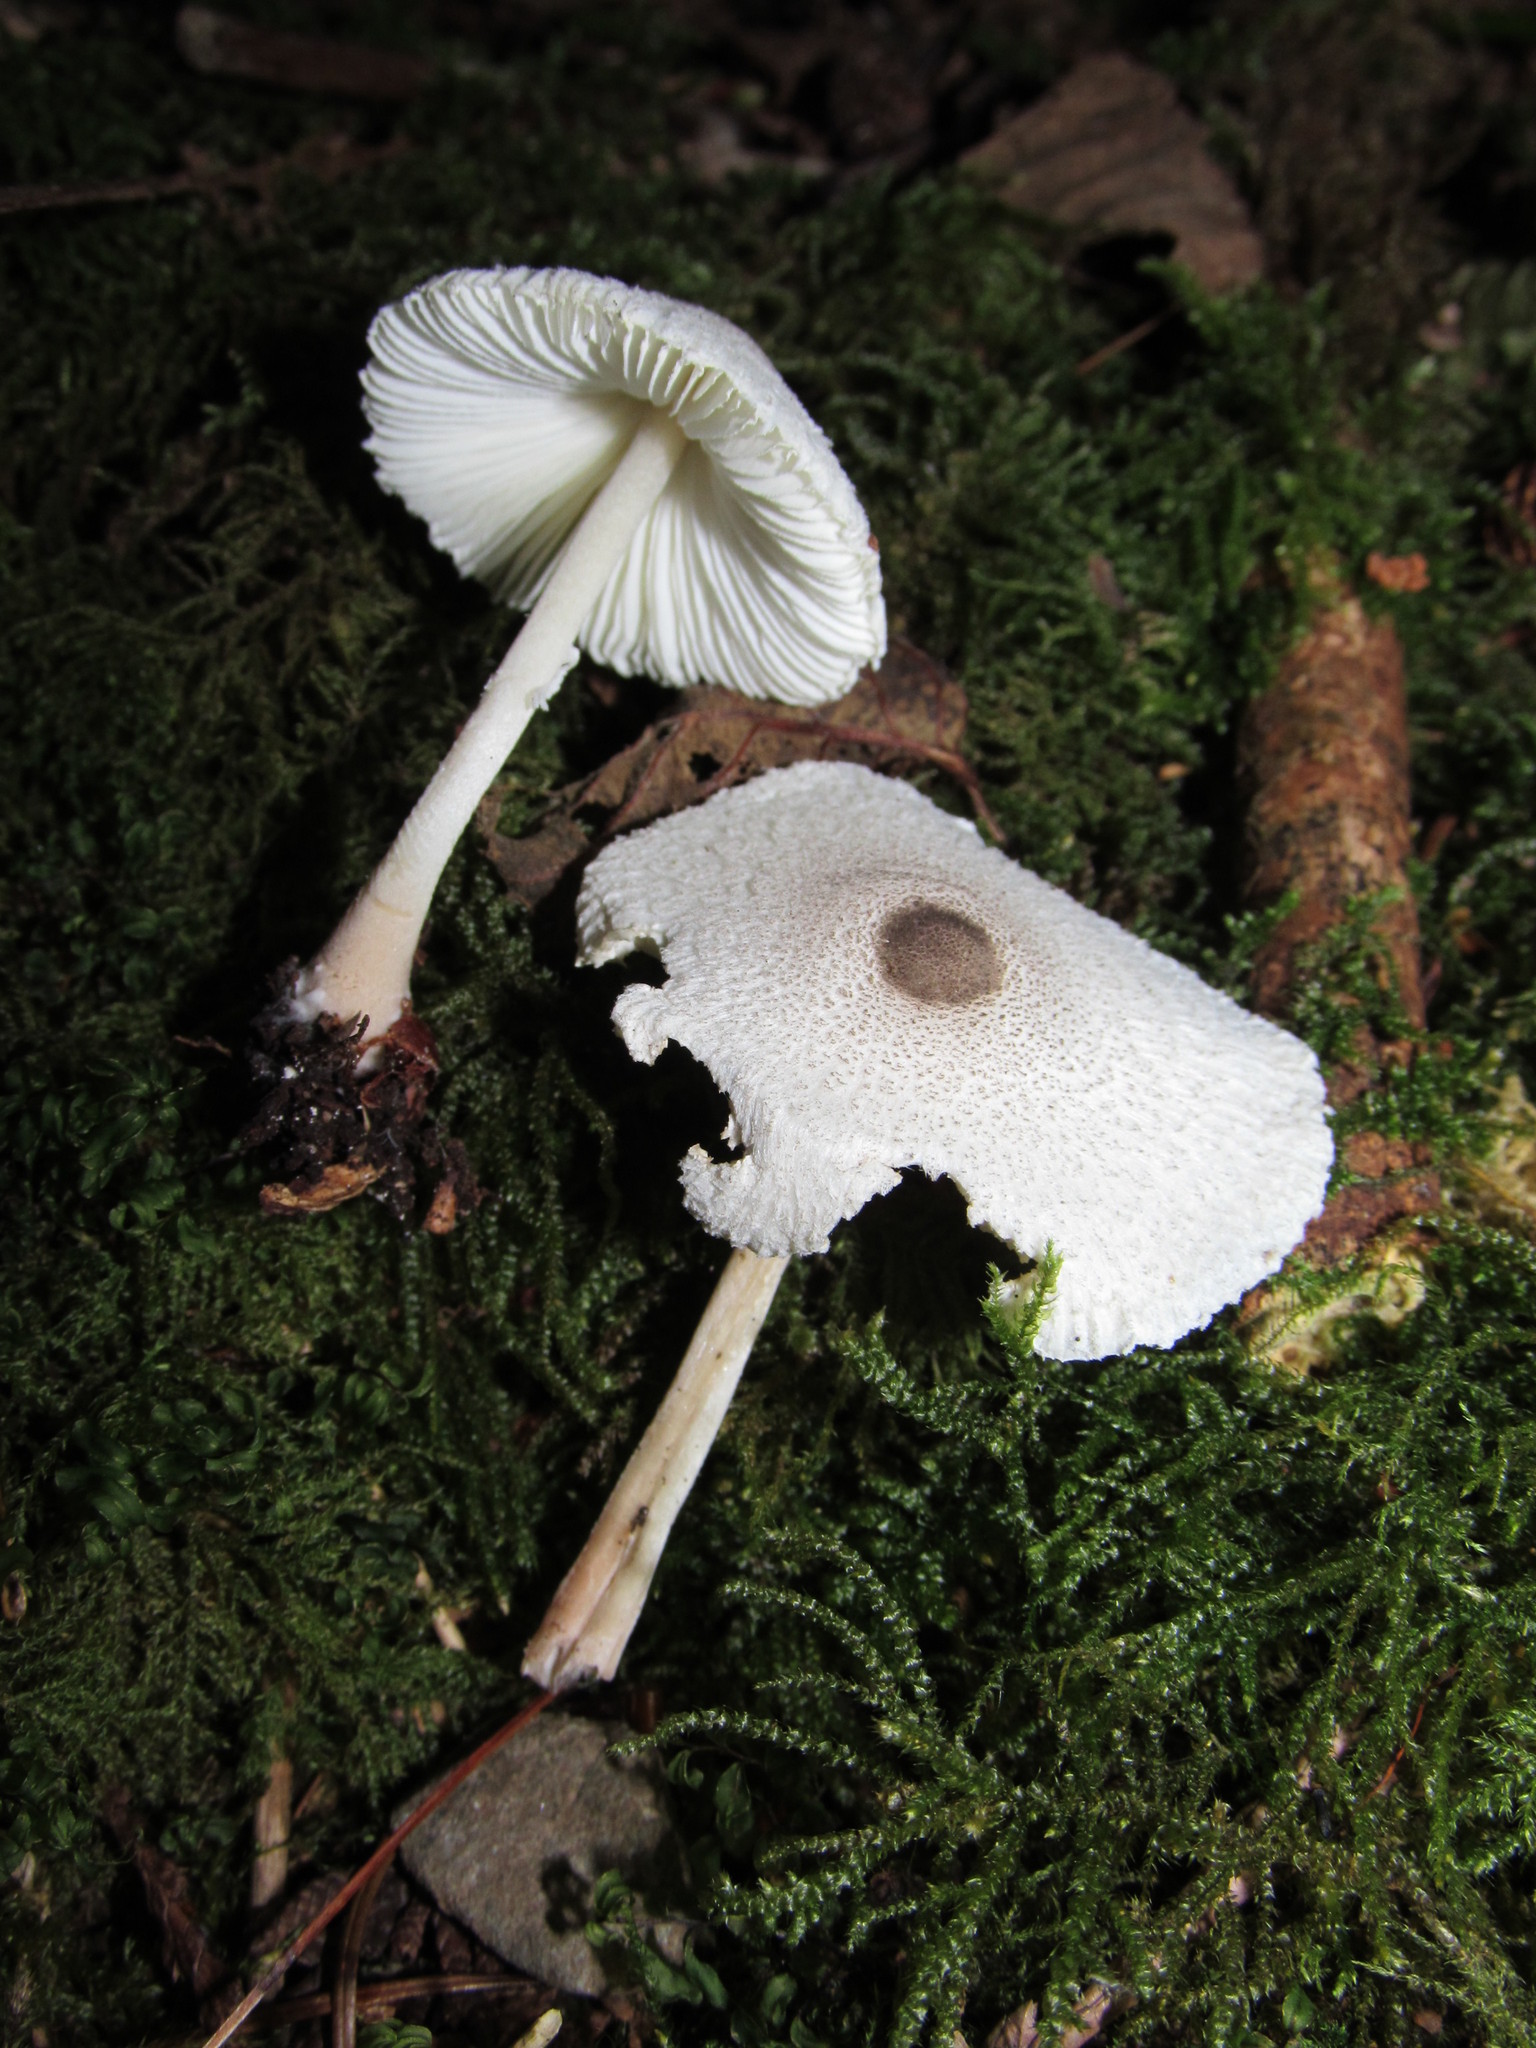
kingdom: Fungi
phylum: Basidiomycota
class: Agaricomycetes
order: Agaricales
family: Agaricaceae
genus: Leucocoprinus
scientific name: Leucocoprinus brebissonii
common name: Skullcap dapperling
